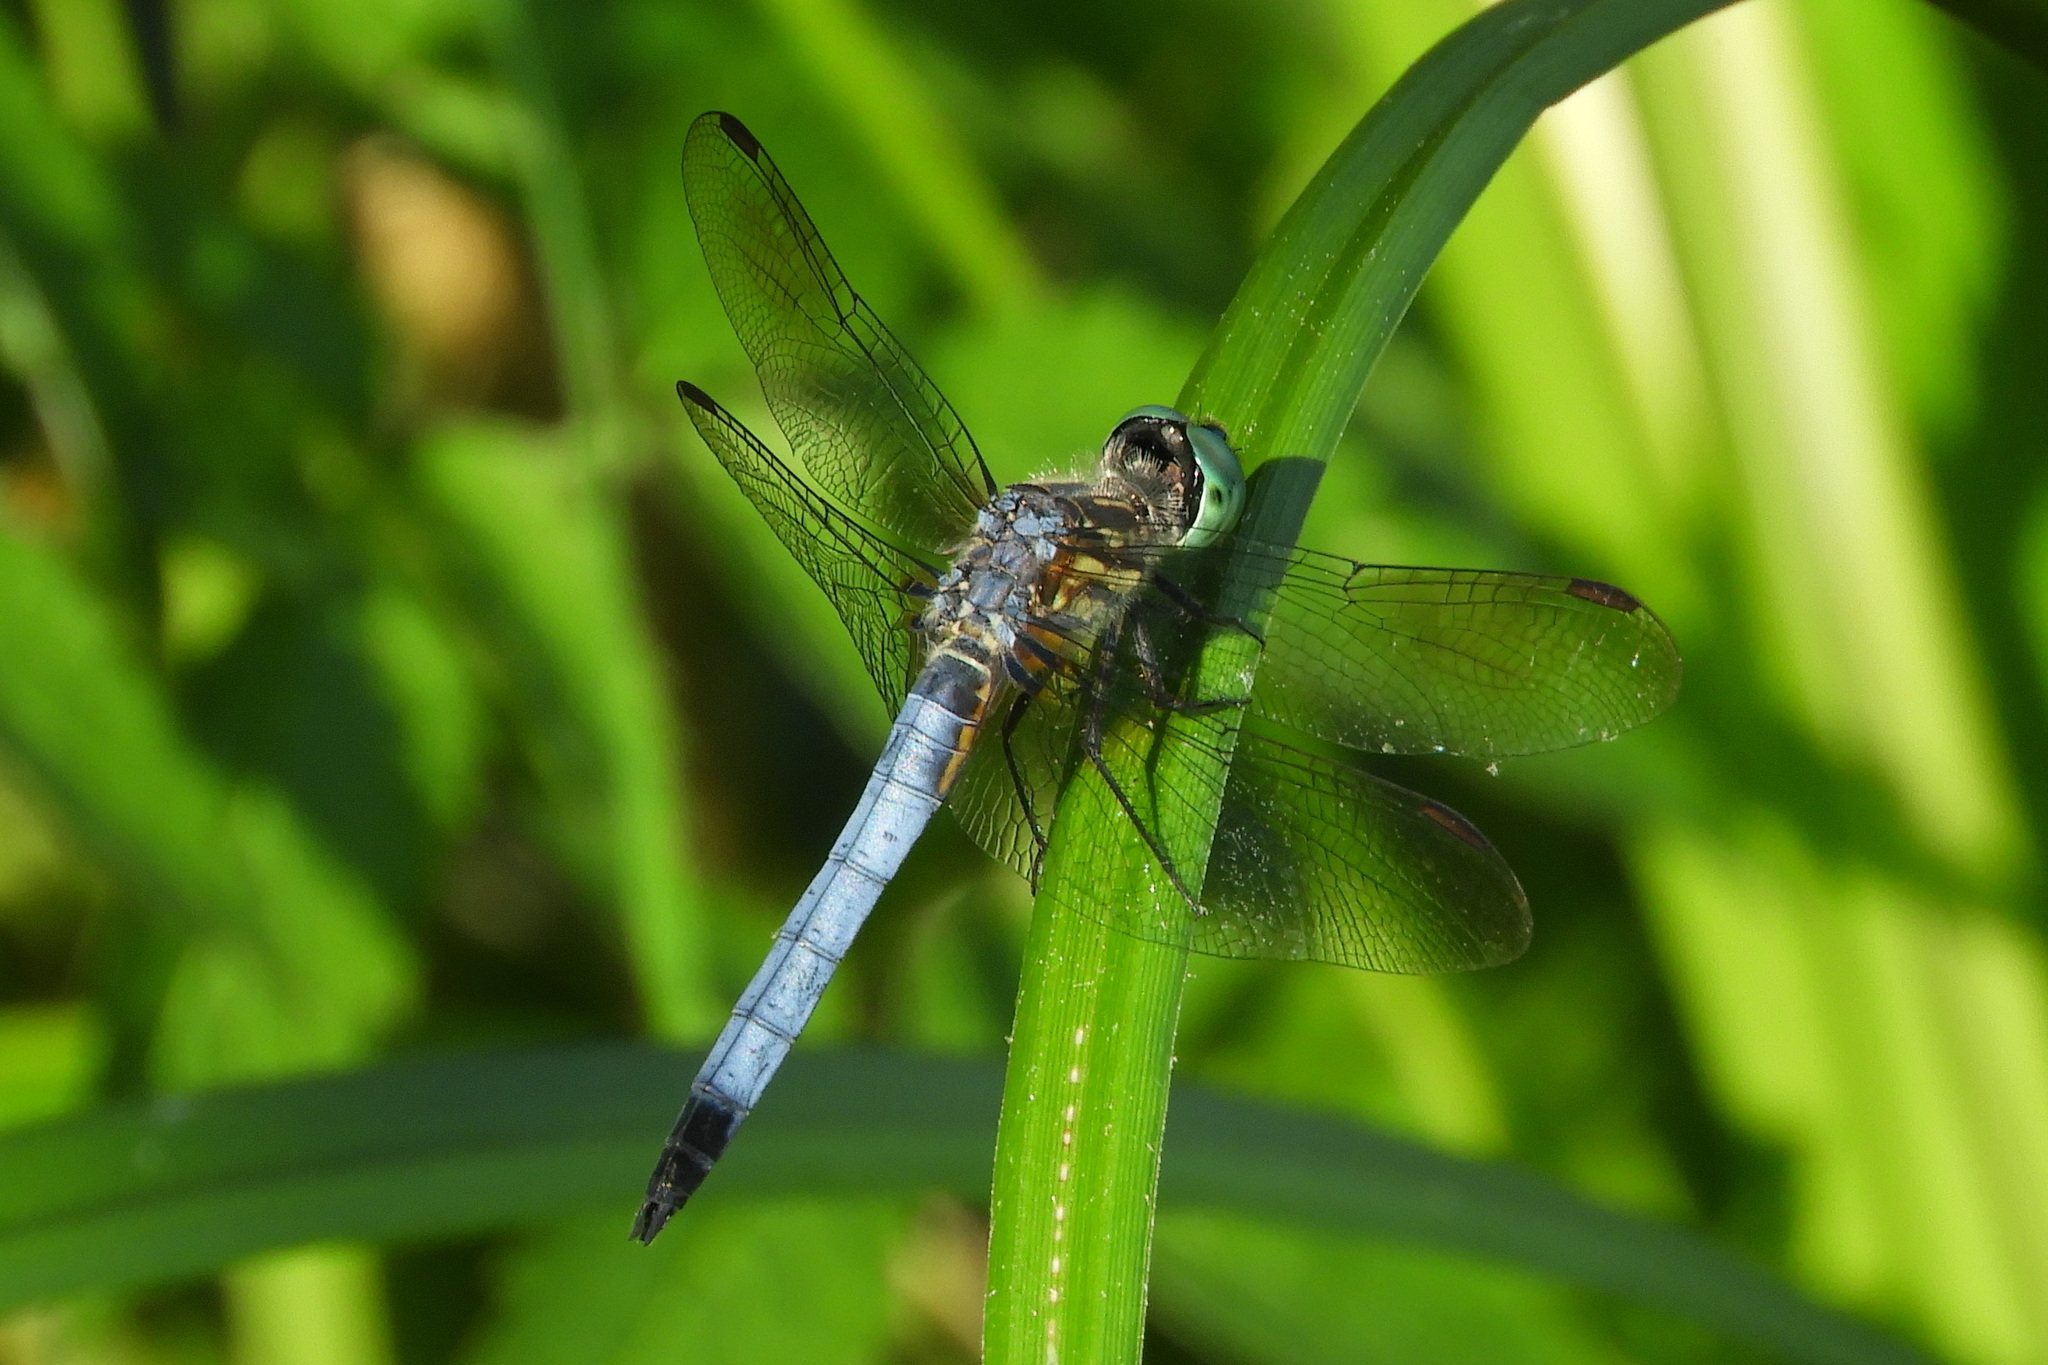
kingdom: Animalia
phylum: Arthropoda
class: Insecta
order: Odonata
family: Libellulidae
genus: Pachydiplax
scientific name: Pachydiplax longipennis
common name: Blue dasher
